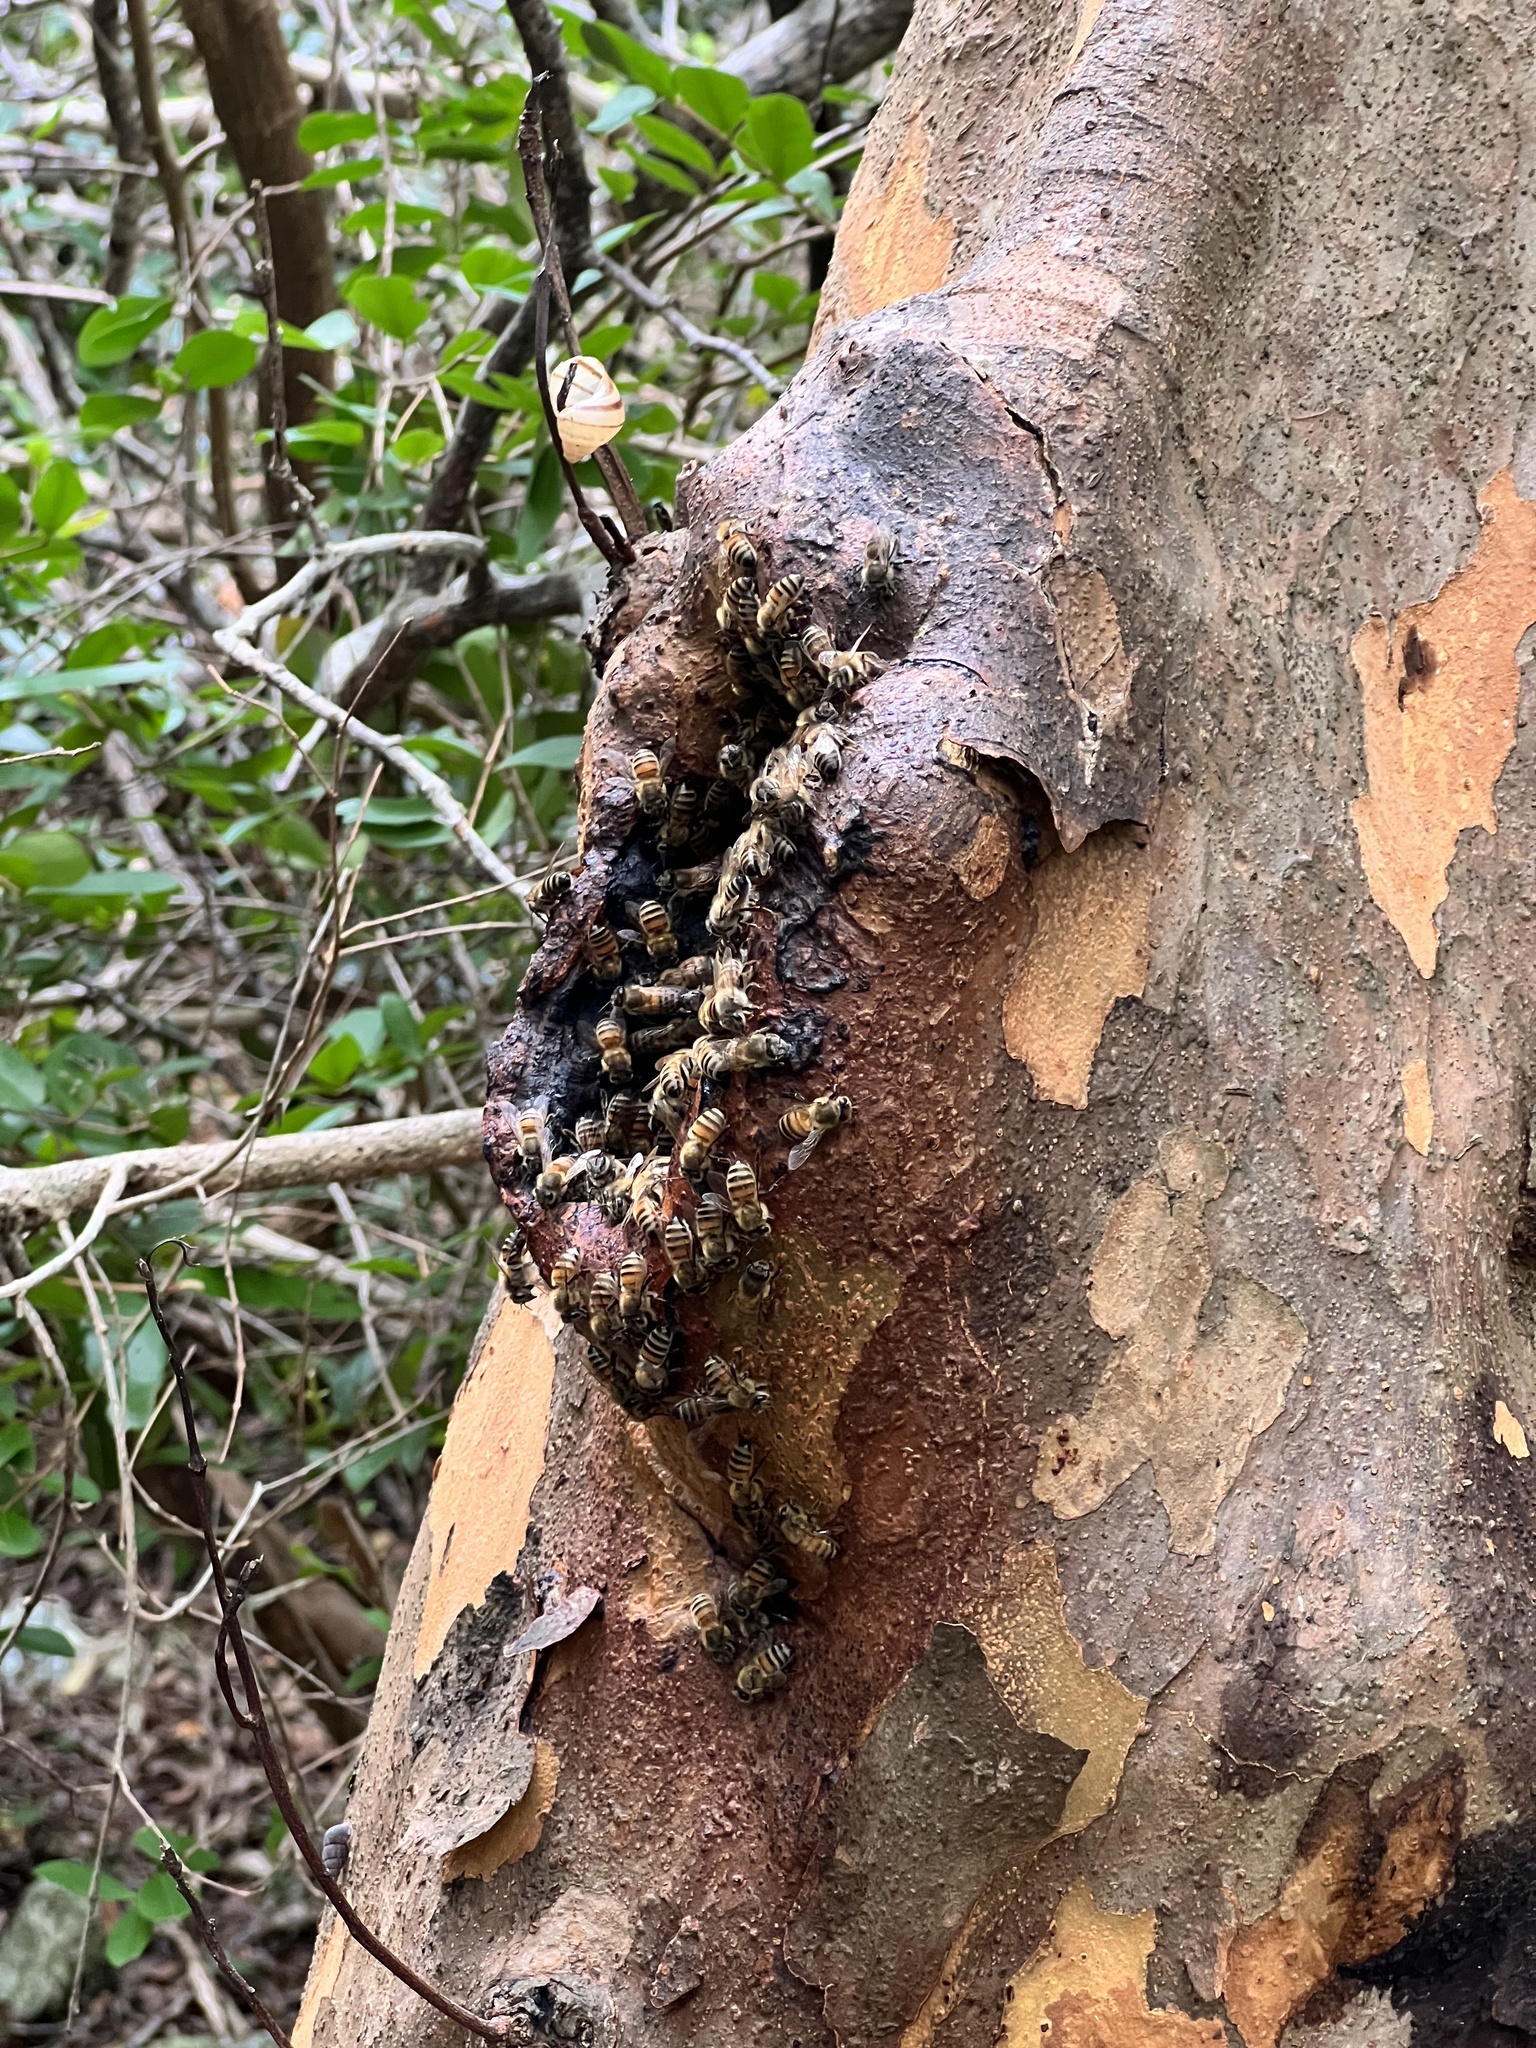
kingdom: Animalia
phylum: Arthropoda
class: Insecta
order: Hymenoptera
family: Apidae
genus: Apis
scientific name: Apis mellifera
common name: Honey bee
